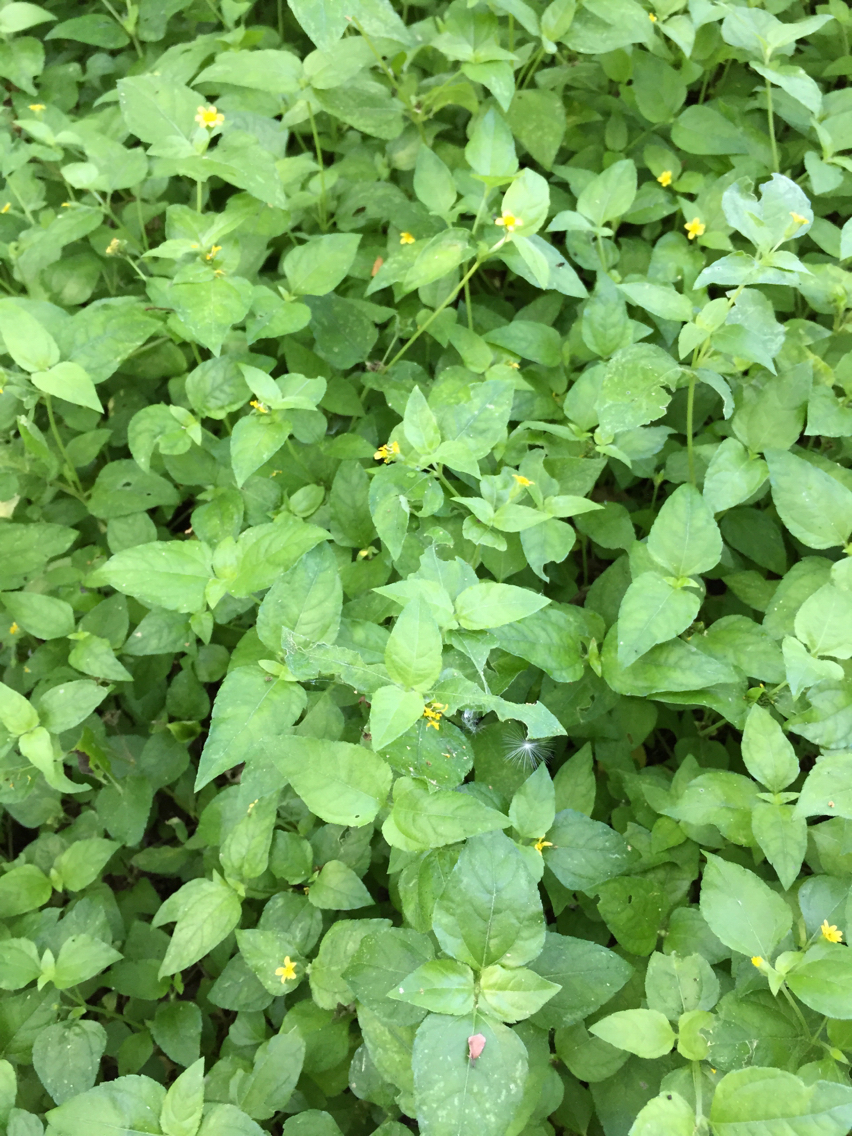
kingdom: Plantae
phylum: Tracheophyta
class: Magnoliopsida
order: Asterales
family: Asteraceae
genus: Calyptocarpus
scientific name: Calyptocarpus vialis
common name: Straggler daisy
